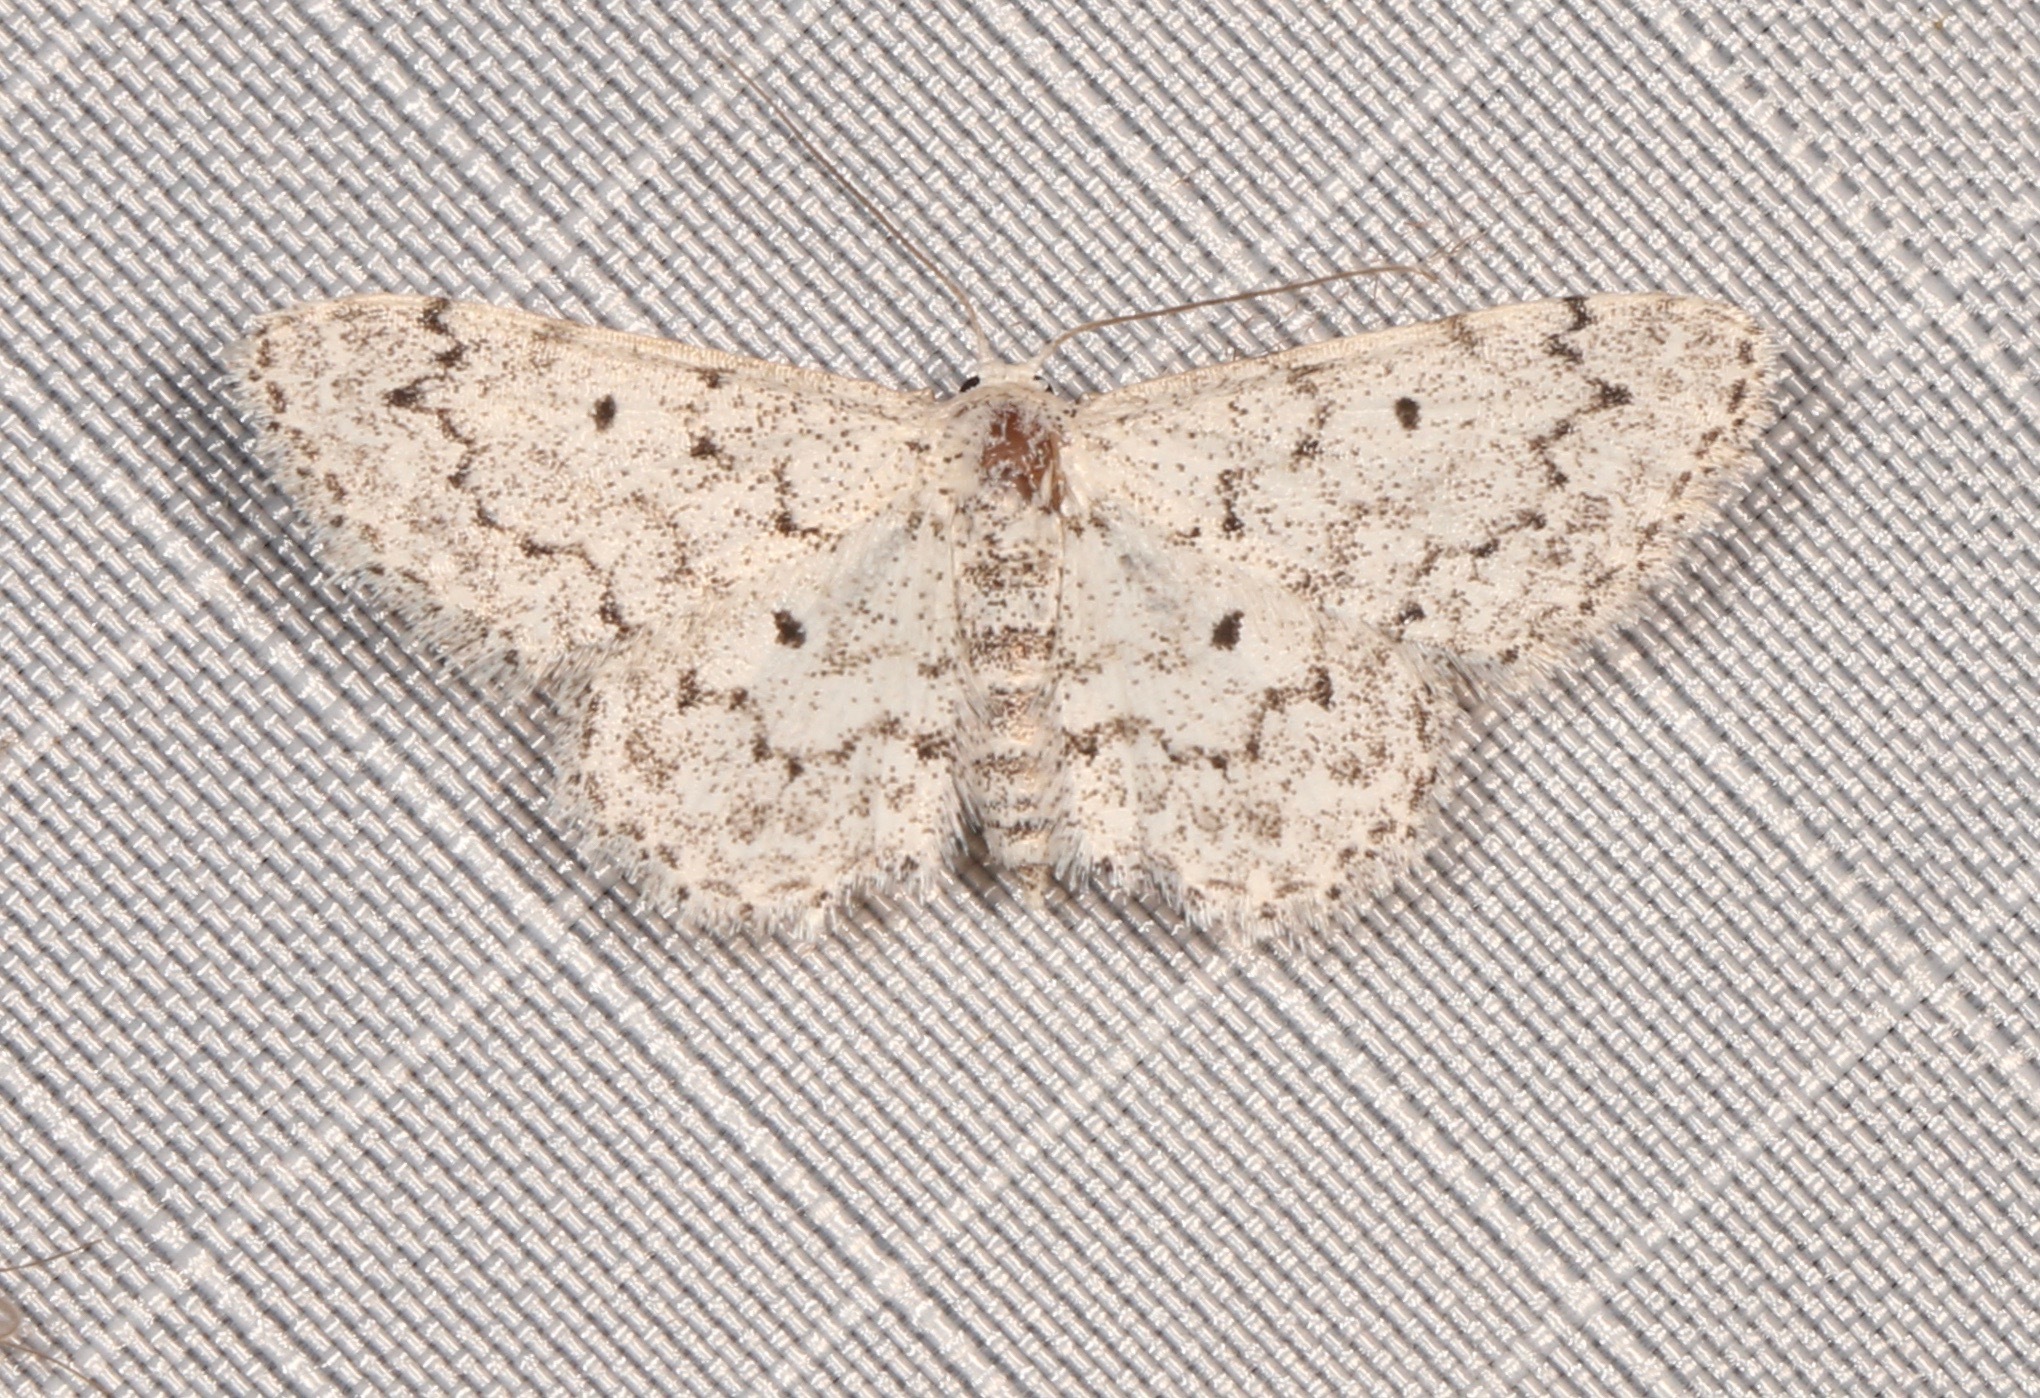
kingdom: Animalia
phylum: Arthropoda
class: Insecta
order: Lepidoptera
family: Geometridae
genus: Idaea
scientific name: Idaea ostentaria
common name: Showy wave moth
